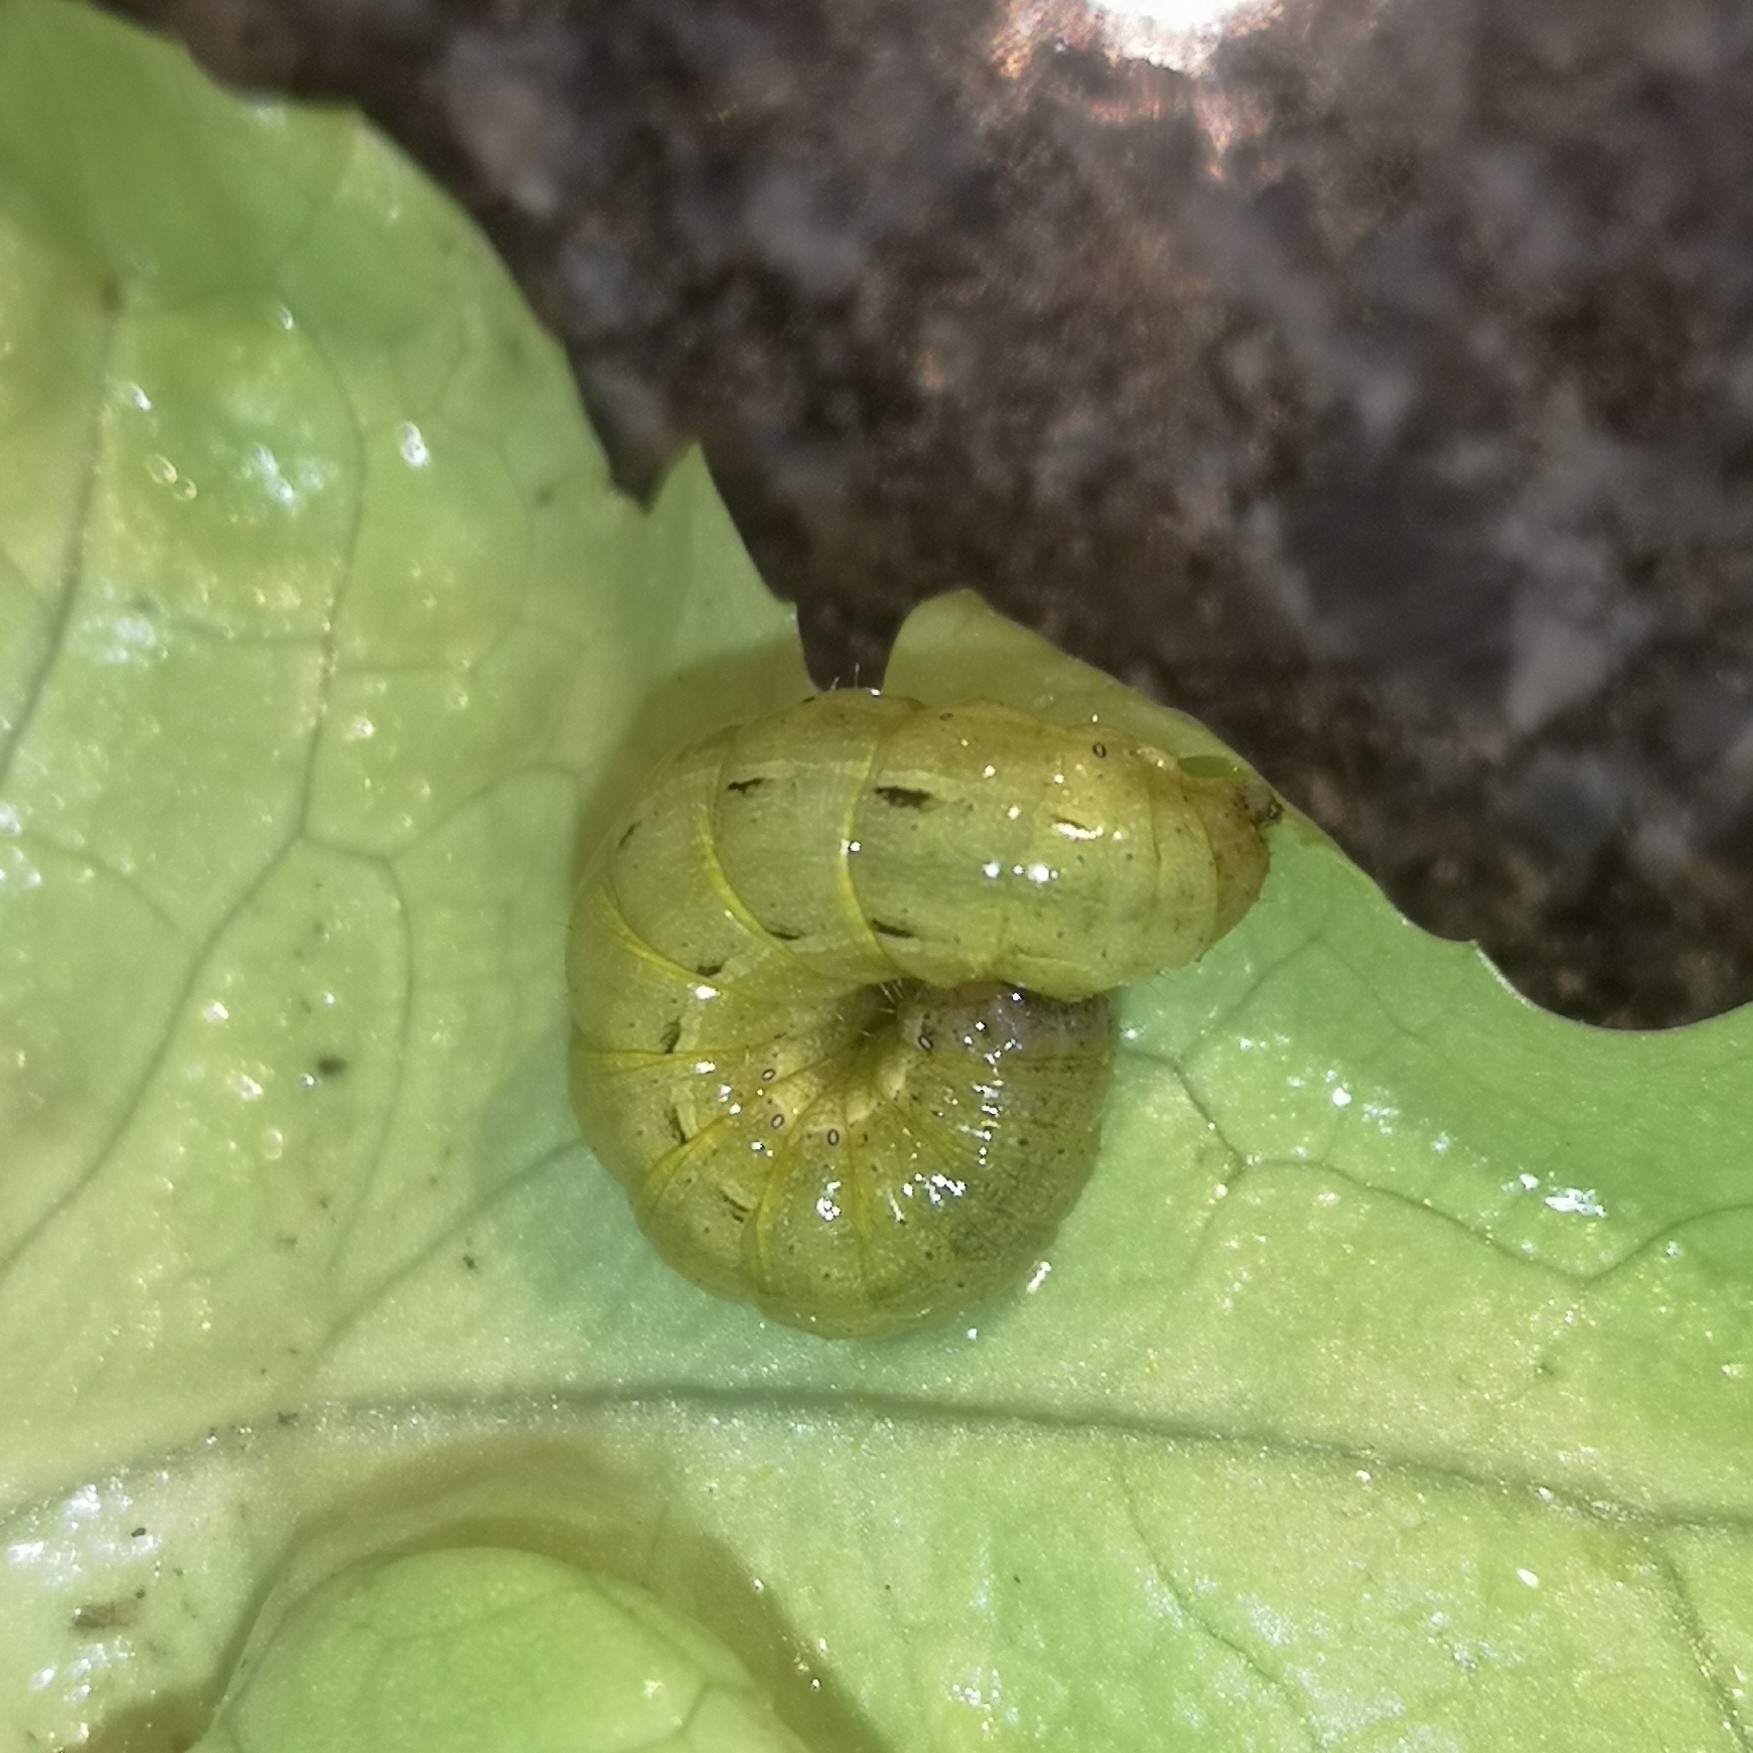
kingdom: Animalia
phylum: Arthropoda
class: Insecta
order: Lepidoptera
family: Noctuidae
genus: Noctua
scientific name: Noctua pronuba
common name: Large yellow underwing
